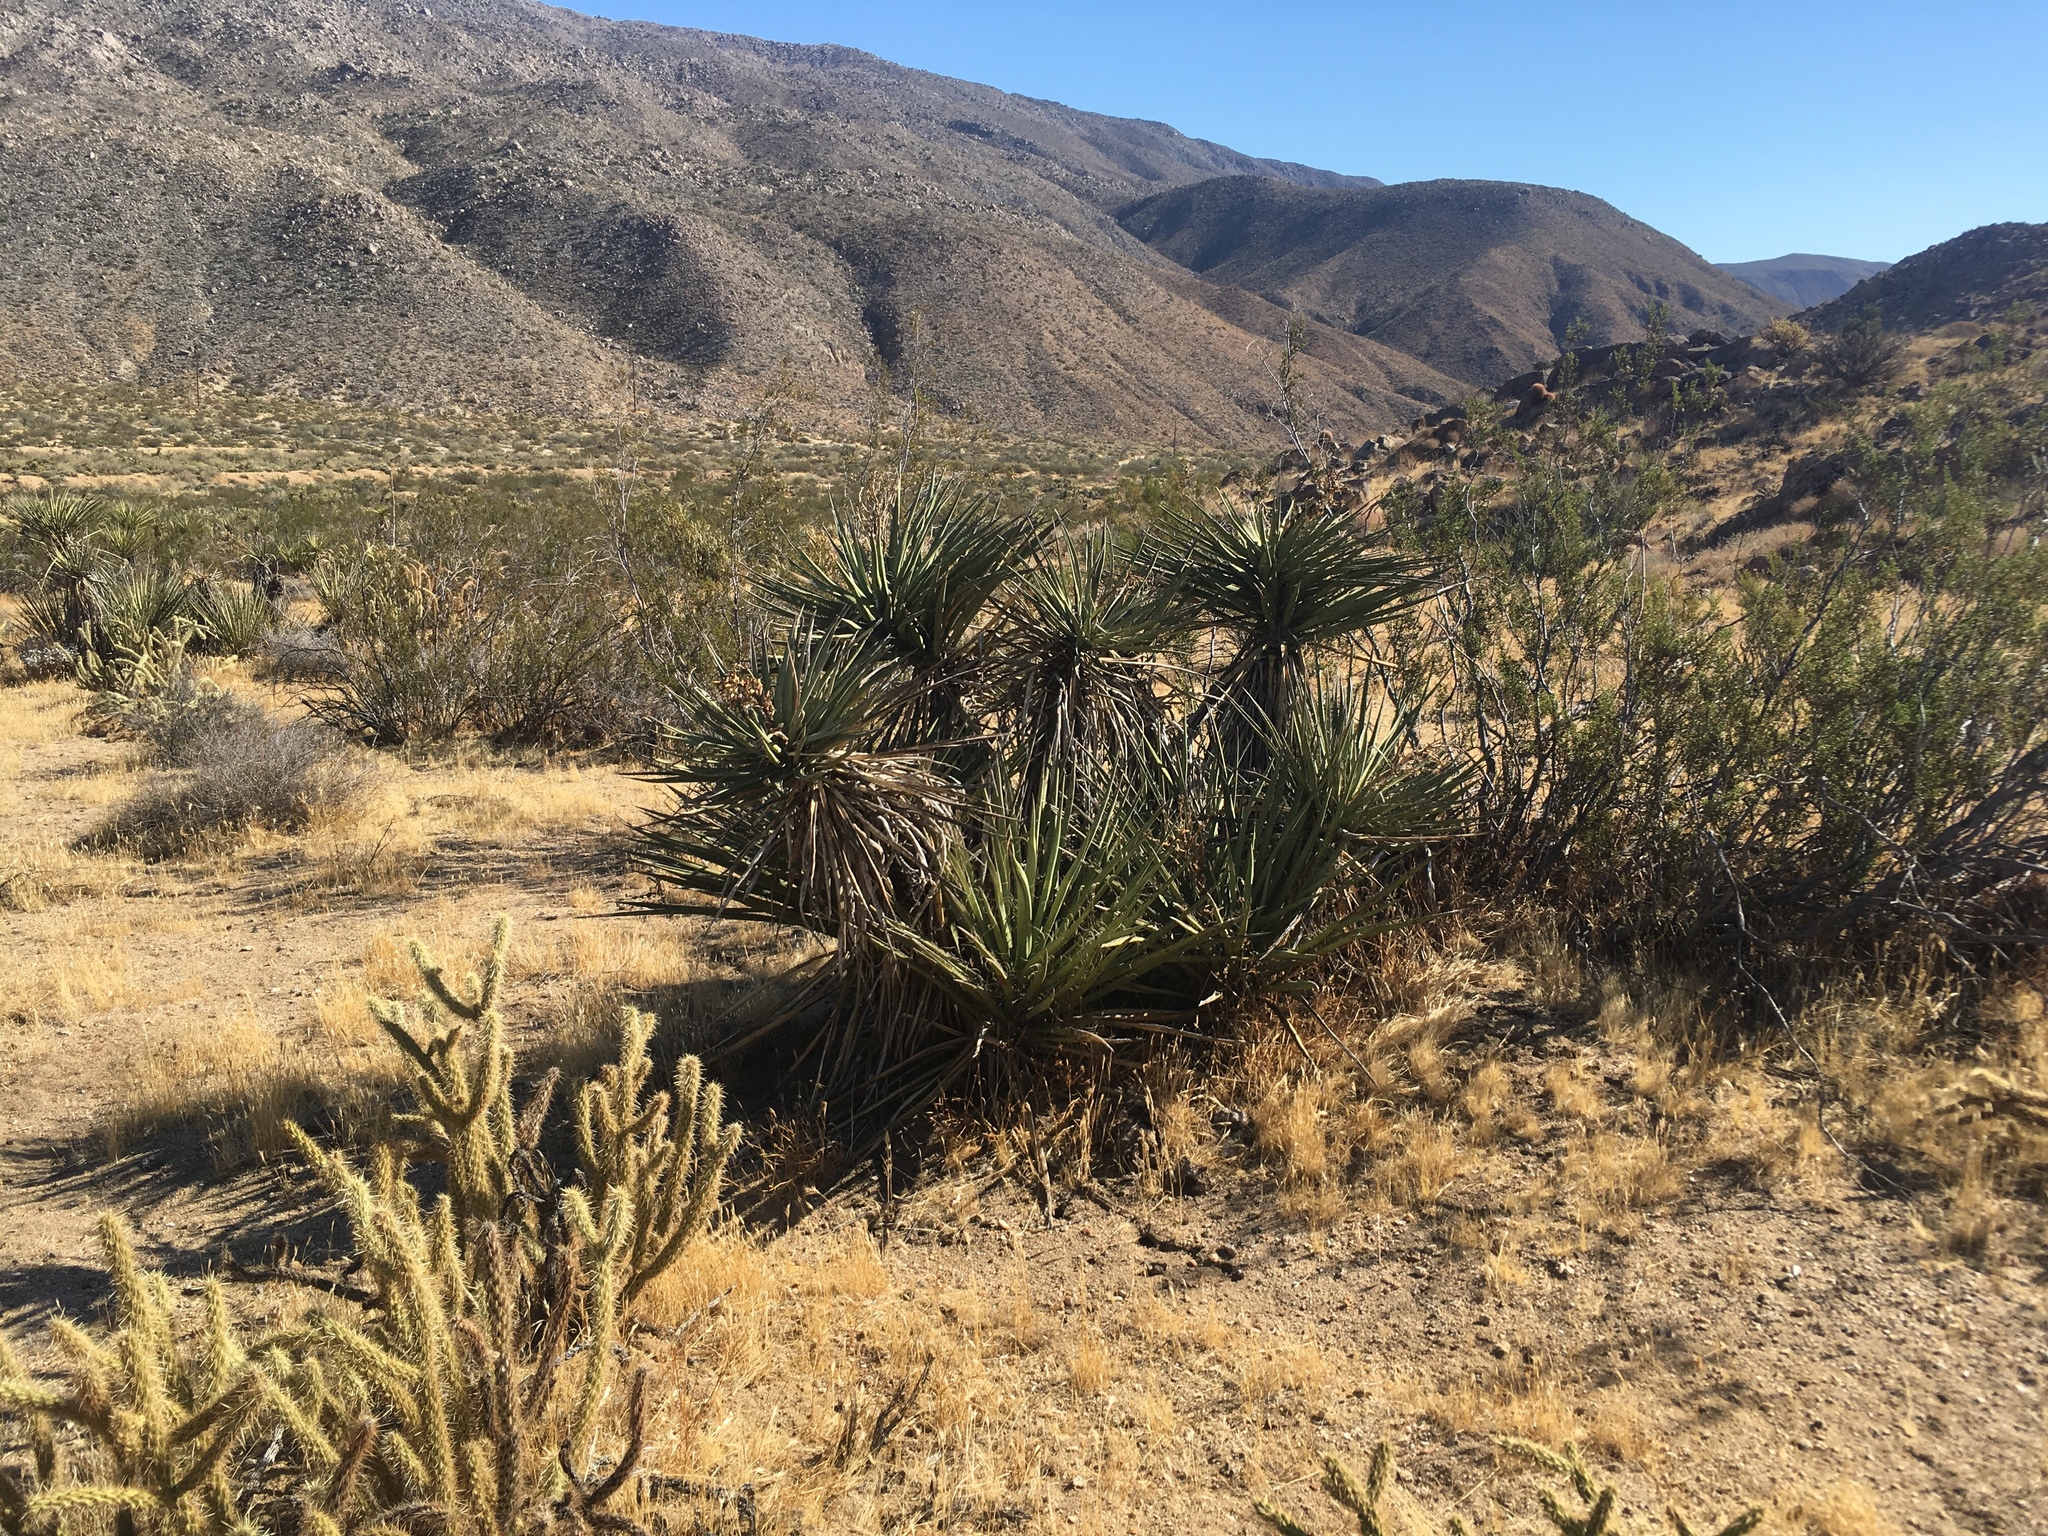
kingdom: Plantae
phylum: Tracheophyta
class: Liliopsida
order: Asparagales
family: Asparagaceae
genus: Yucca
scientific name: Yucca schidigera
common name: Mojave yucca
